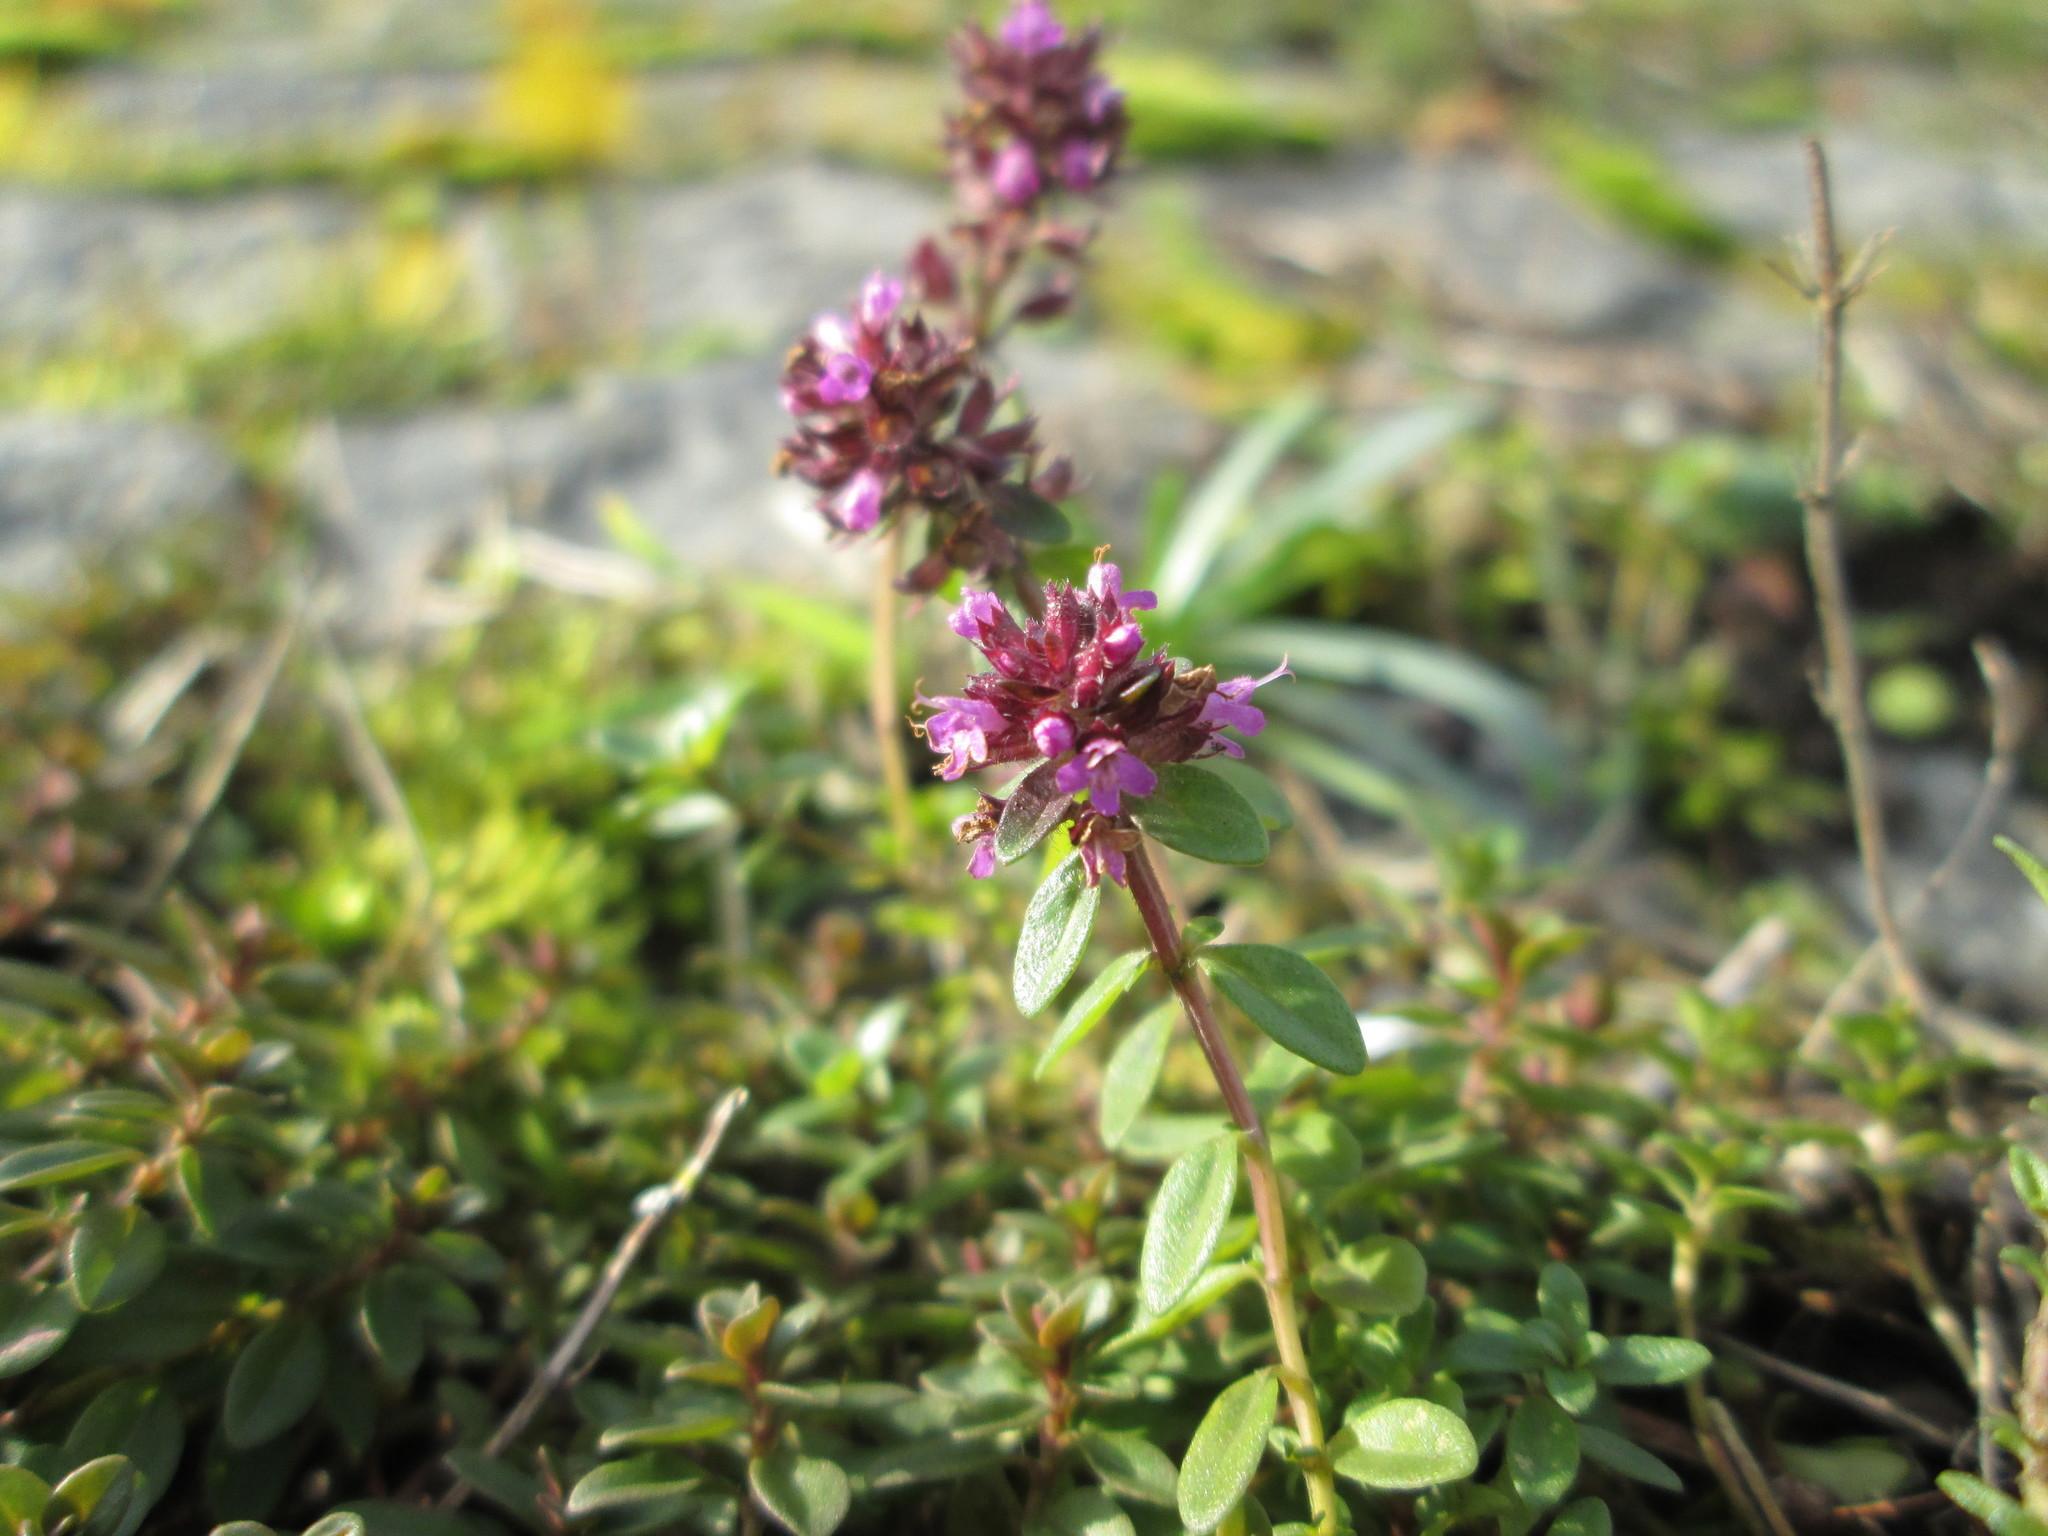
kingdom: Plantae
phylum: Tracheophyta
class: Magnoliopsida
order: Lamiales
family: Lamiaceae
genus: Thymus
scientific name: Thymus pulegioides
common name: Large thyme
